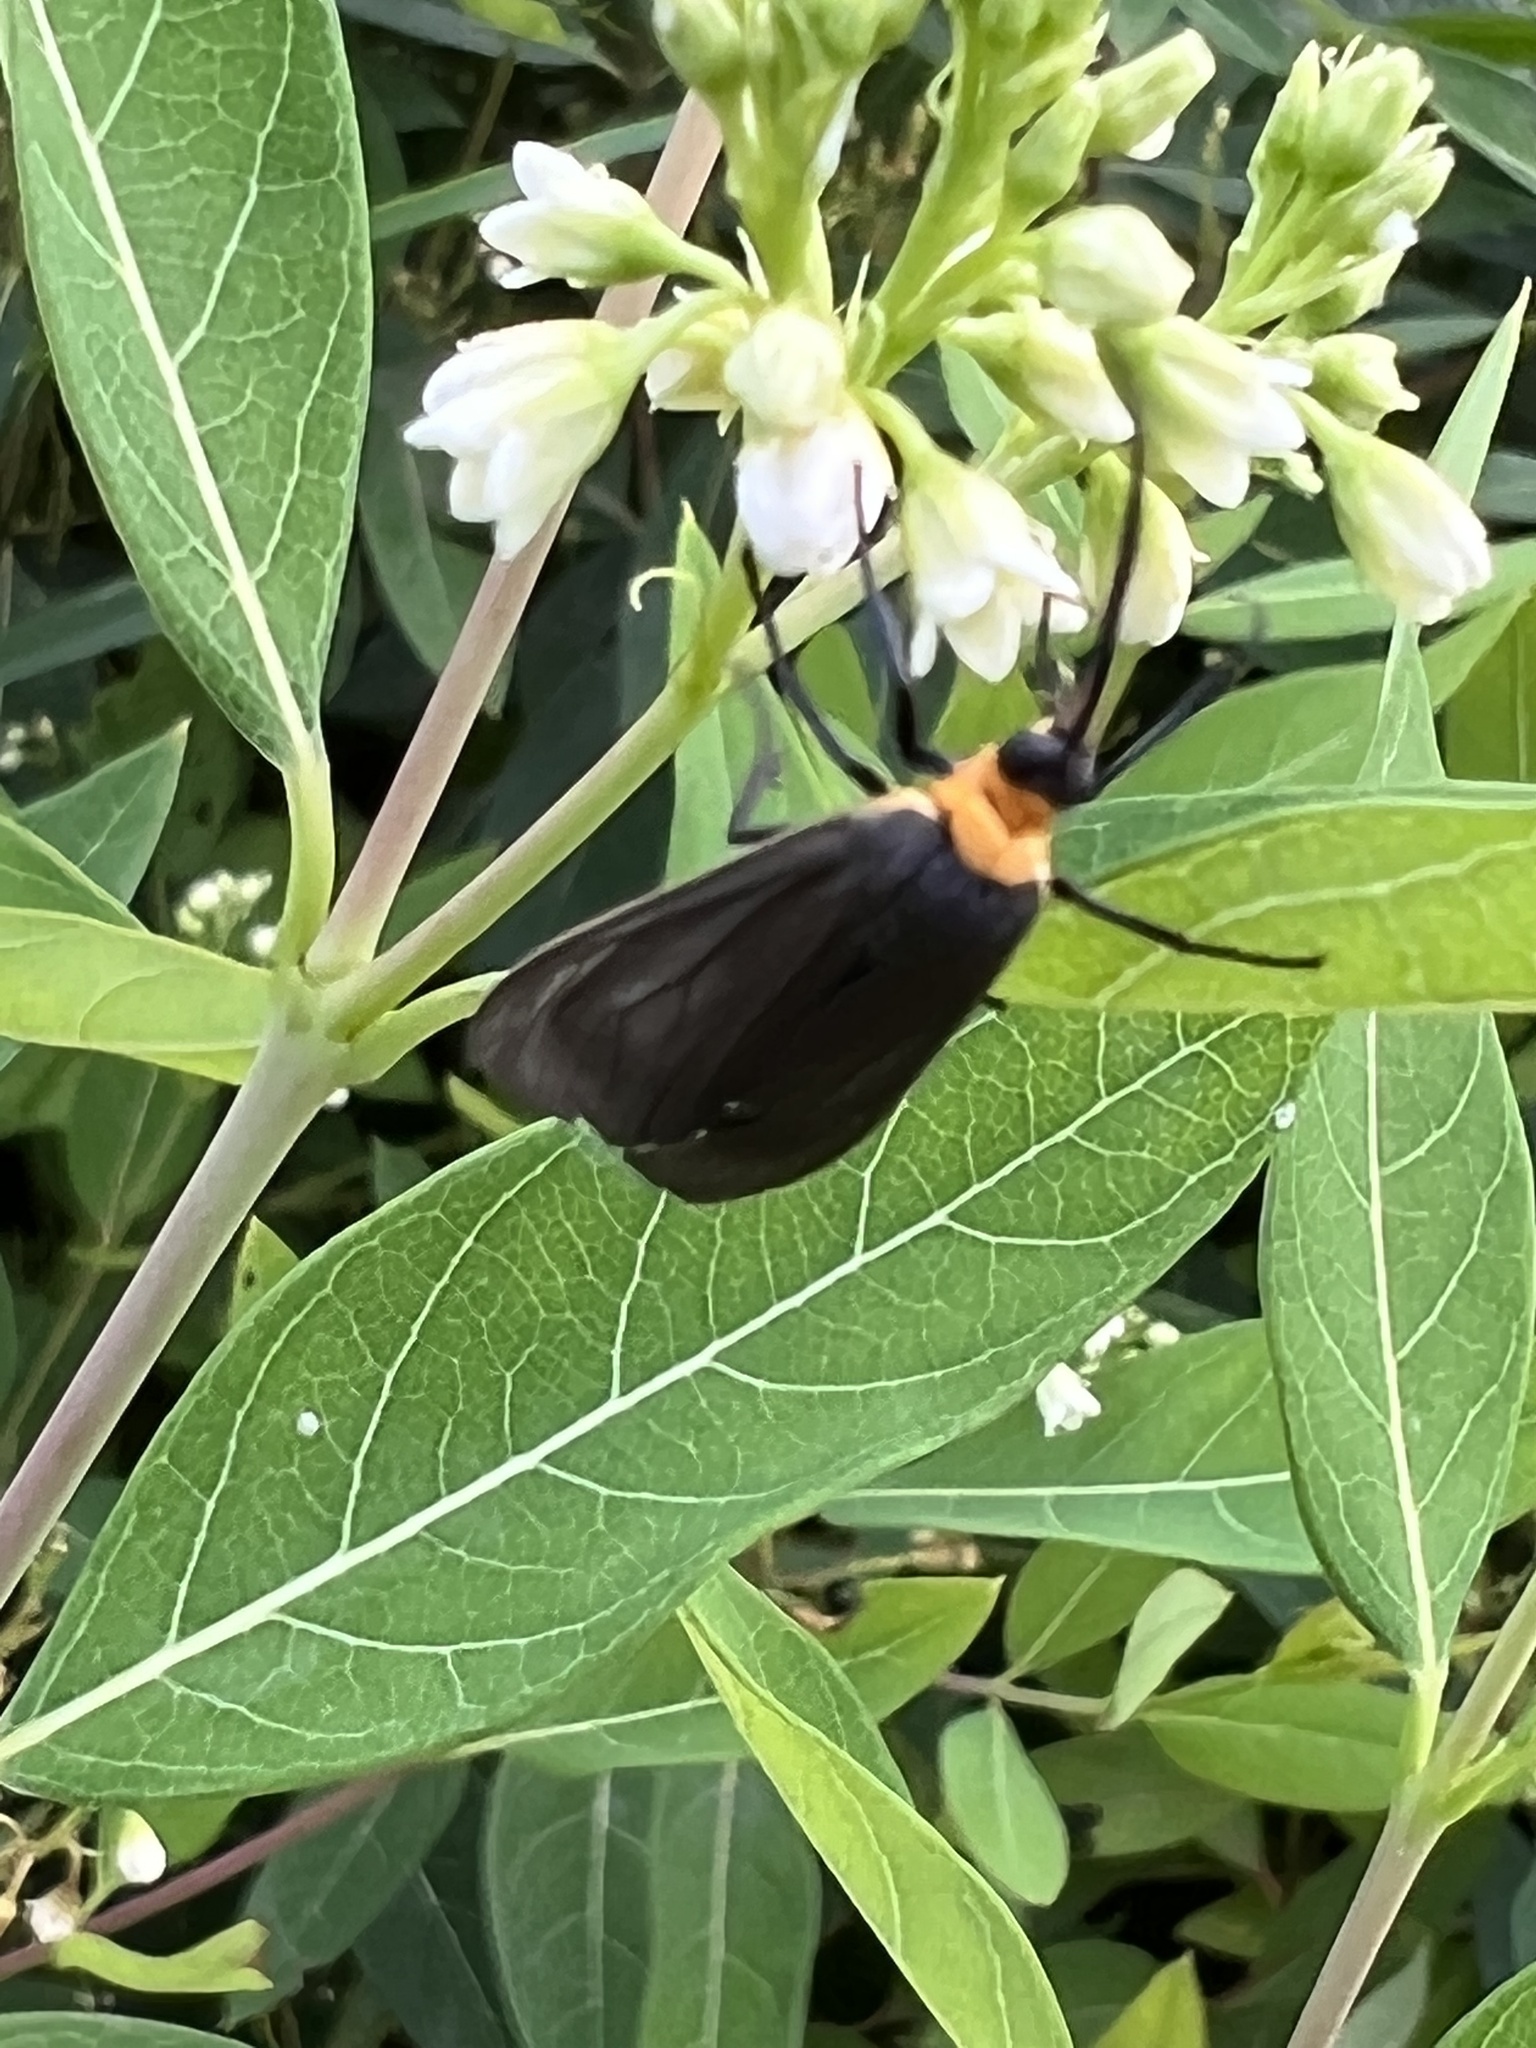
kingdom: Animalia
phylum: Arthropoda
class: Insecta
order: Lepidoptera
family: Erebidae
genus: Cisseps
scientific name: Cisseps fulvicollis
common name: Yellow-collared scape moth
